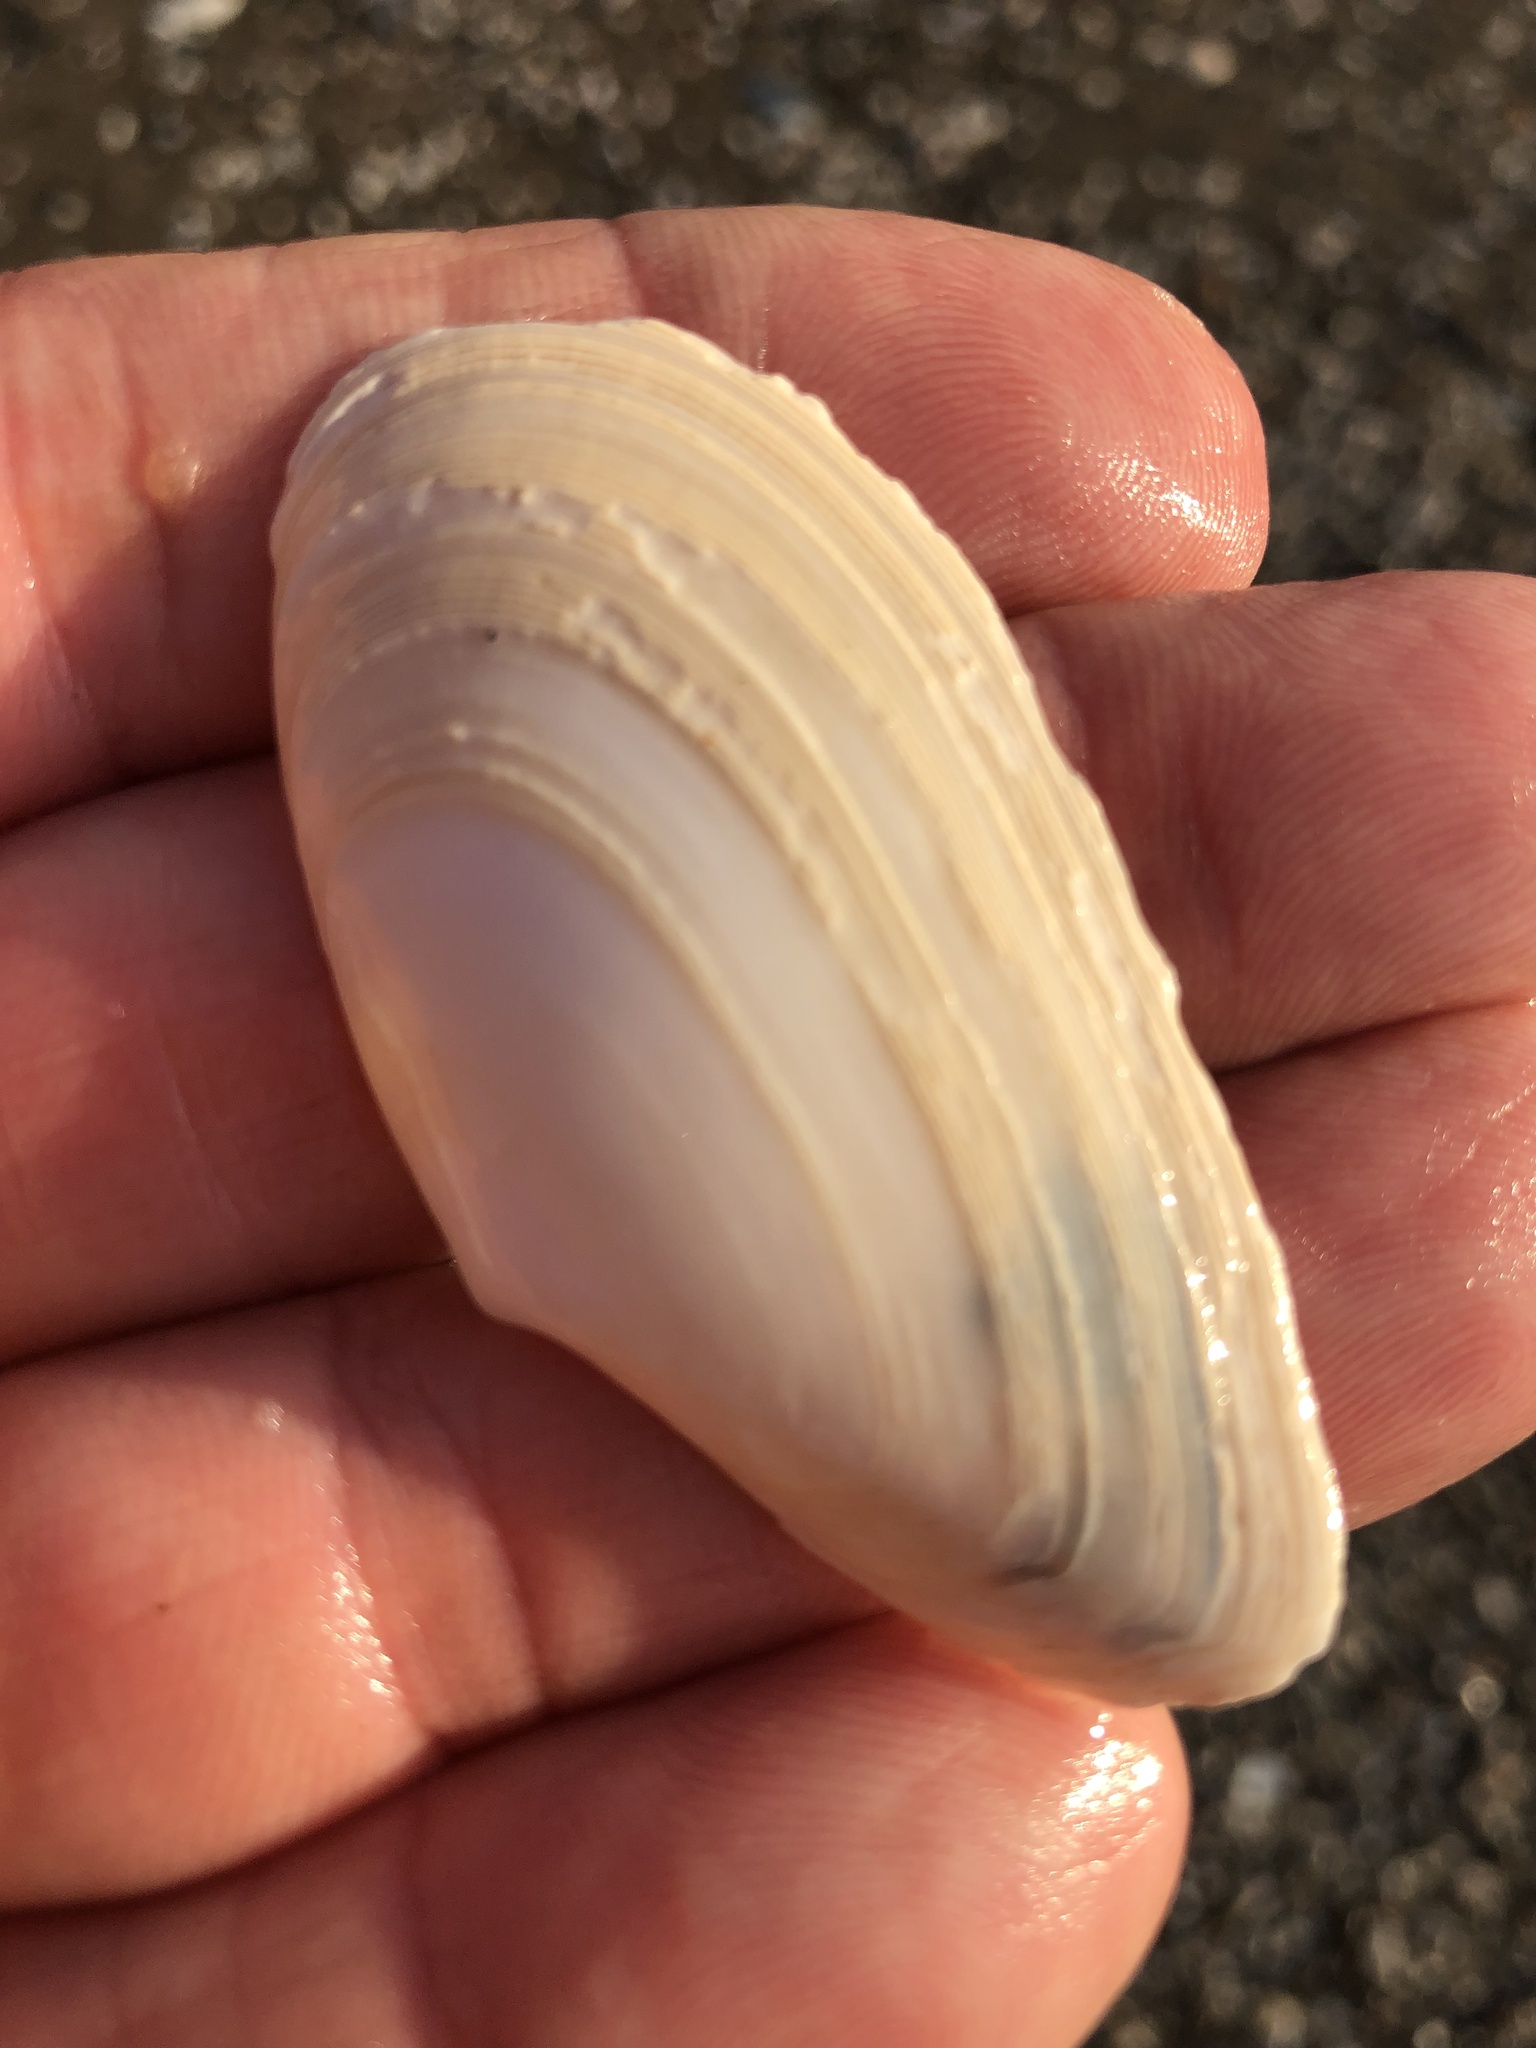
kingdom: Animalia
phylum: Mollusca
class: Bivalvia
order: Cardiida
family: Tellinidae
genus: Megangulus
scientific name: Megangulus bodegensis
